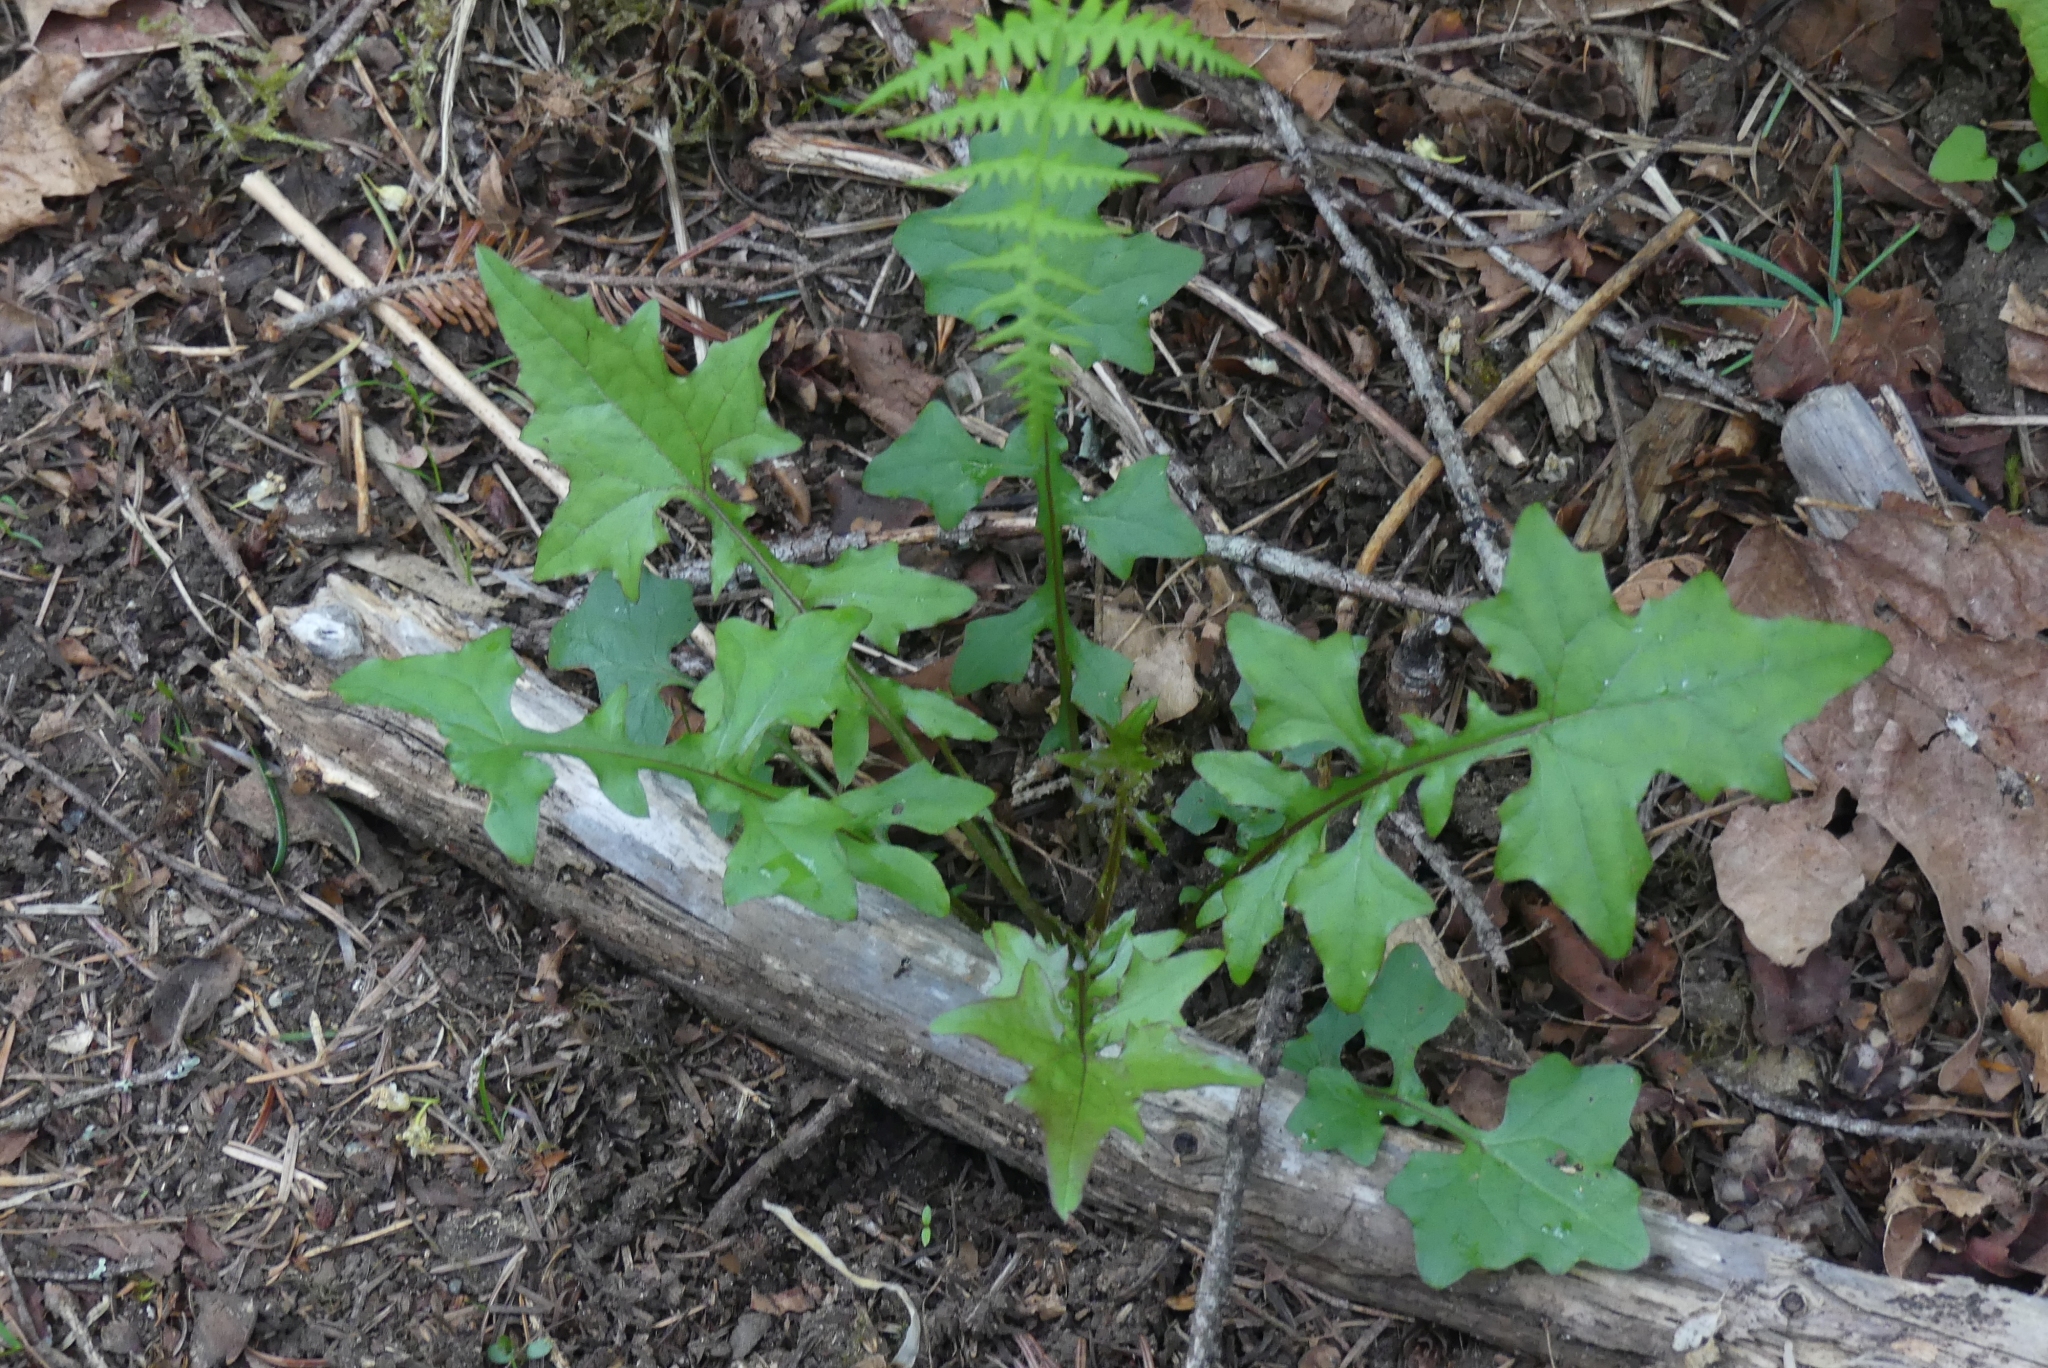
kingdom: Plantae
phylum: Tracheophyta
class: Magnoliopsida
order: Asterales
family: Asteraceae
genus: Mycelis
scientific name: Mycelis muralis
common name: Wall lettuce
